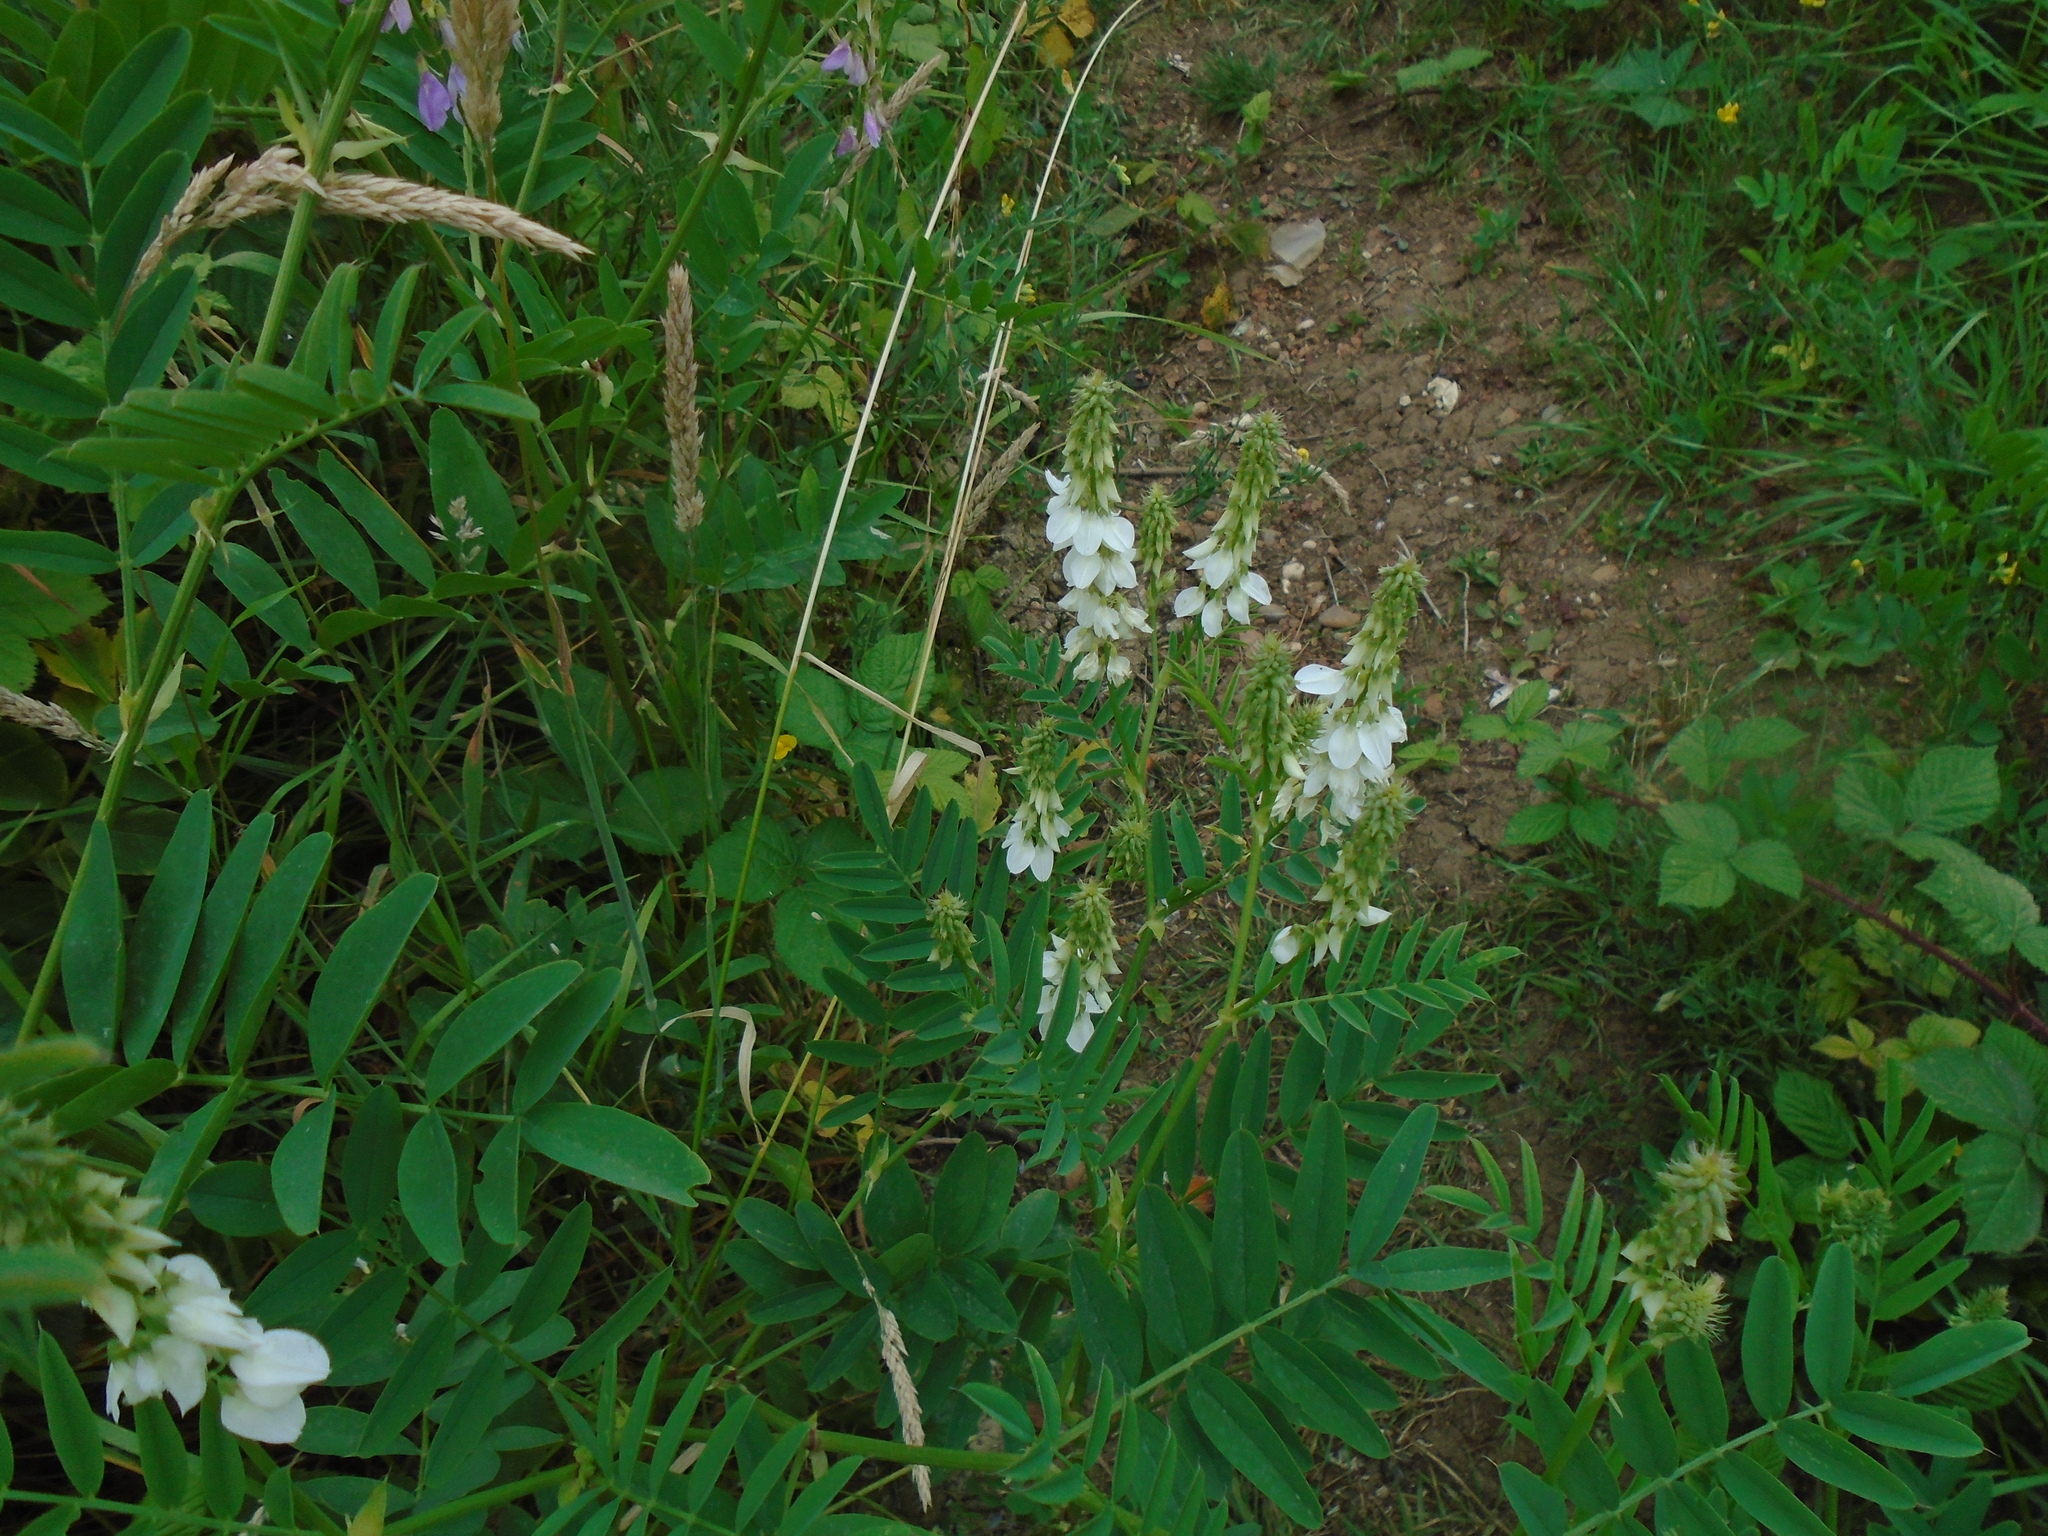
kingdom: Plantae
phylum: Tracheophyta
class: Magnoliopsida
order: Fabales
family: Fabaceae
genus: Galega
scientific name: Galega officinalis
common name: Goat's-rue
